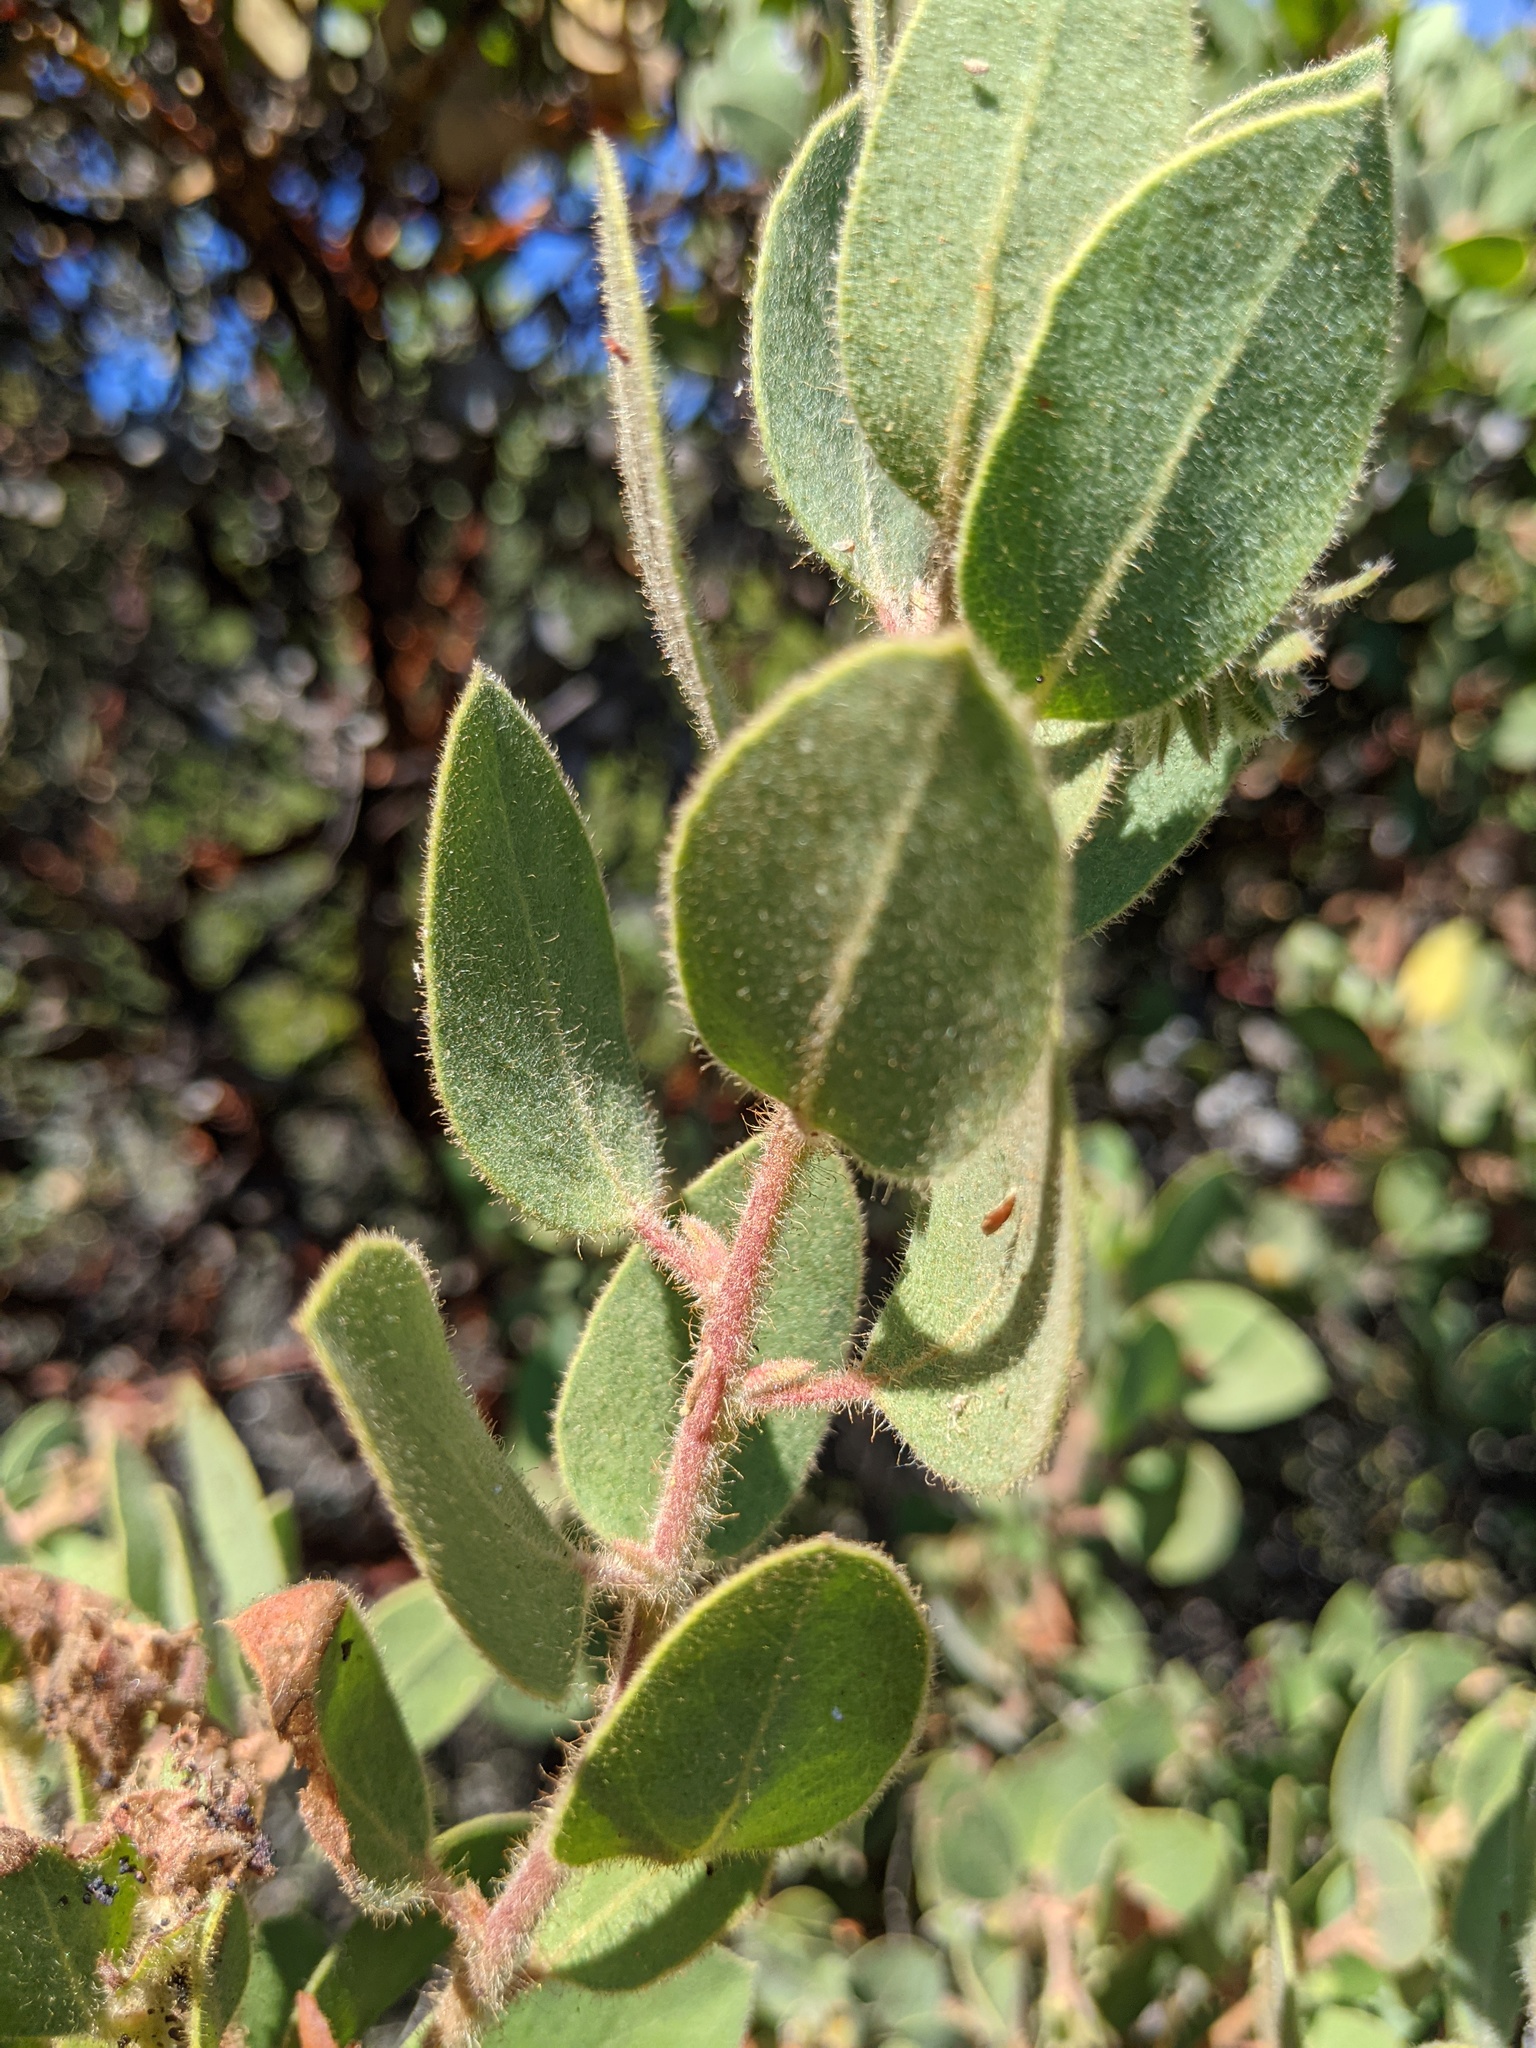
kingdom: Plantae
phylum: Tracheophyta
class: Magnoliopsida
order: Ericales
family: Ericaceae
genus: Arctostaphylos
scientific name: Arctostaphylos glandulosa
